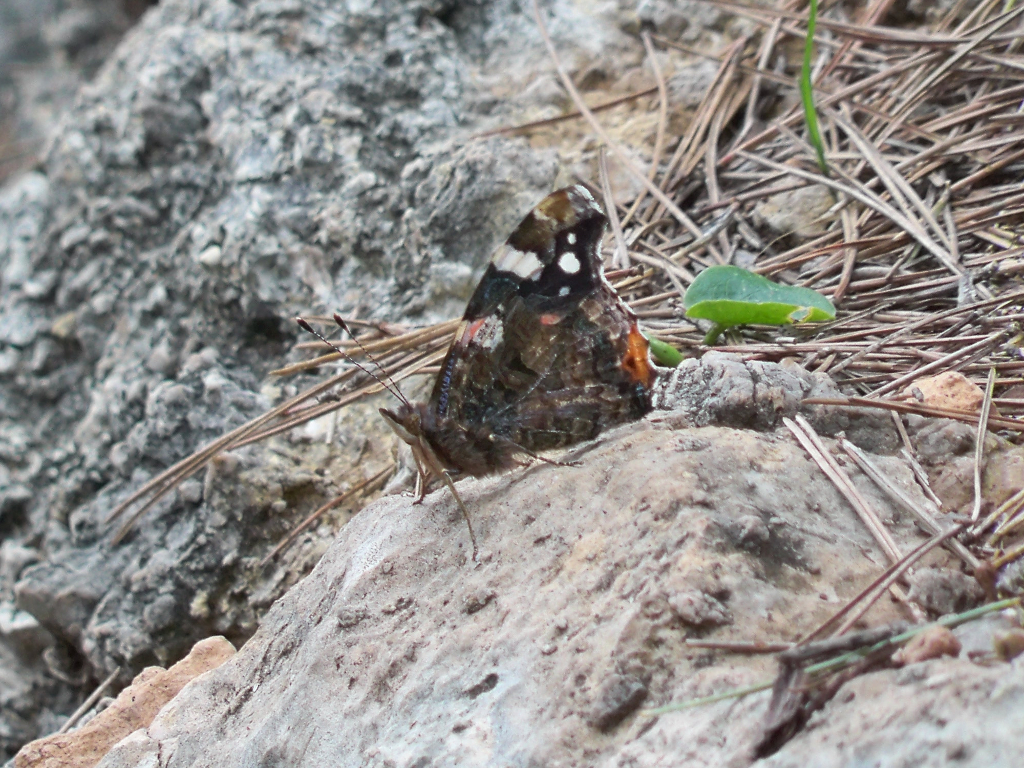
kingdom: Animalia
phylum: Arthropoda
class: Insecta
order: Lepidoptera
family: Nymphalidae
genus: Vanessa
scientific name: Vanessa atalanta
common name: Red admiral
